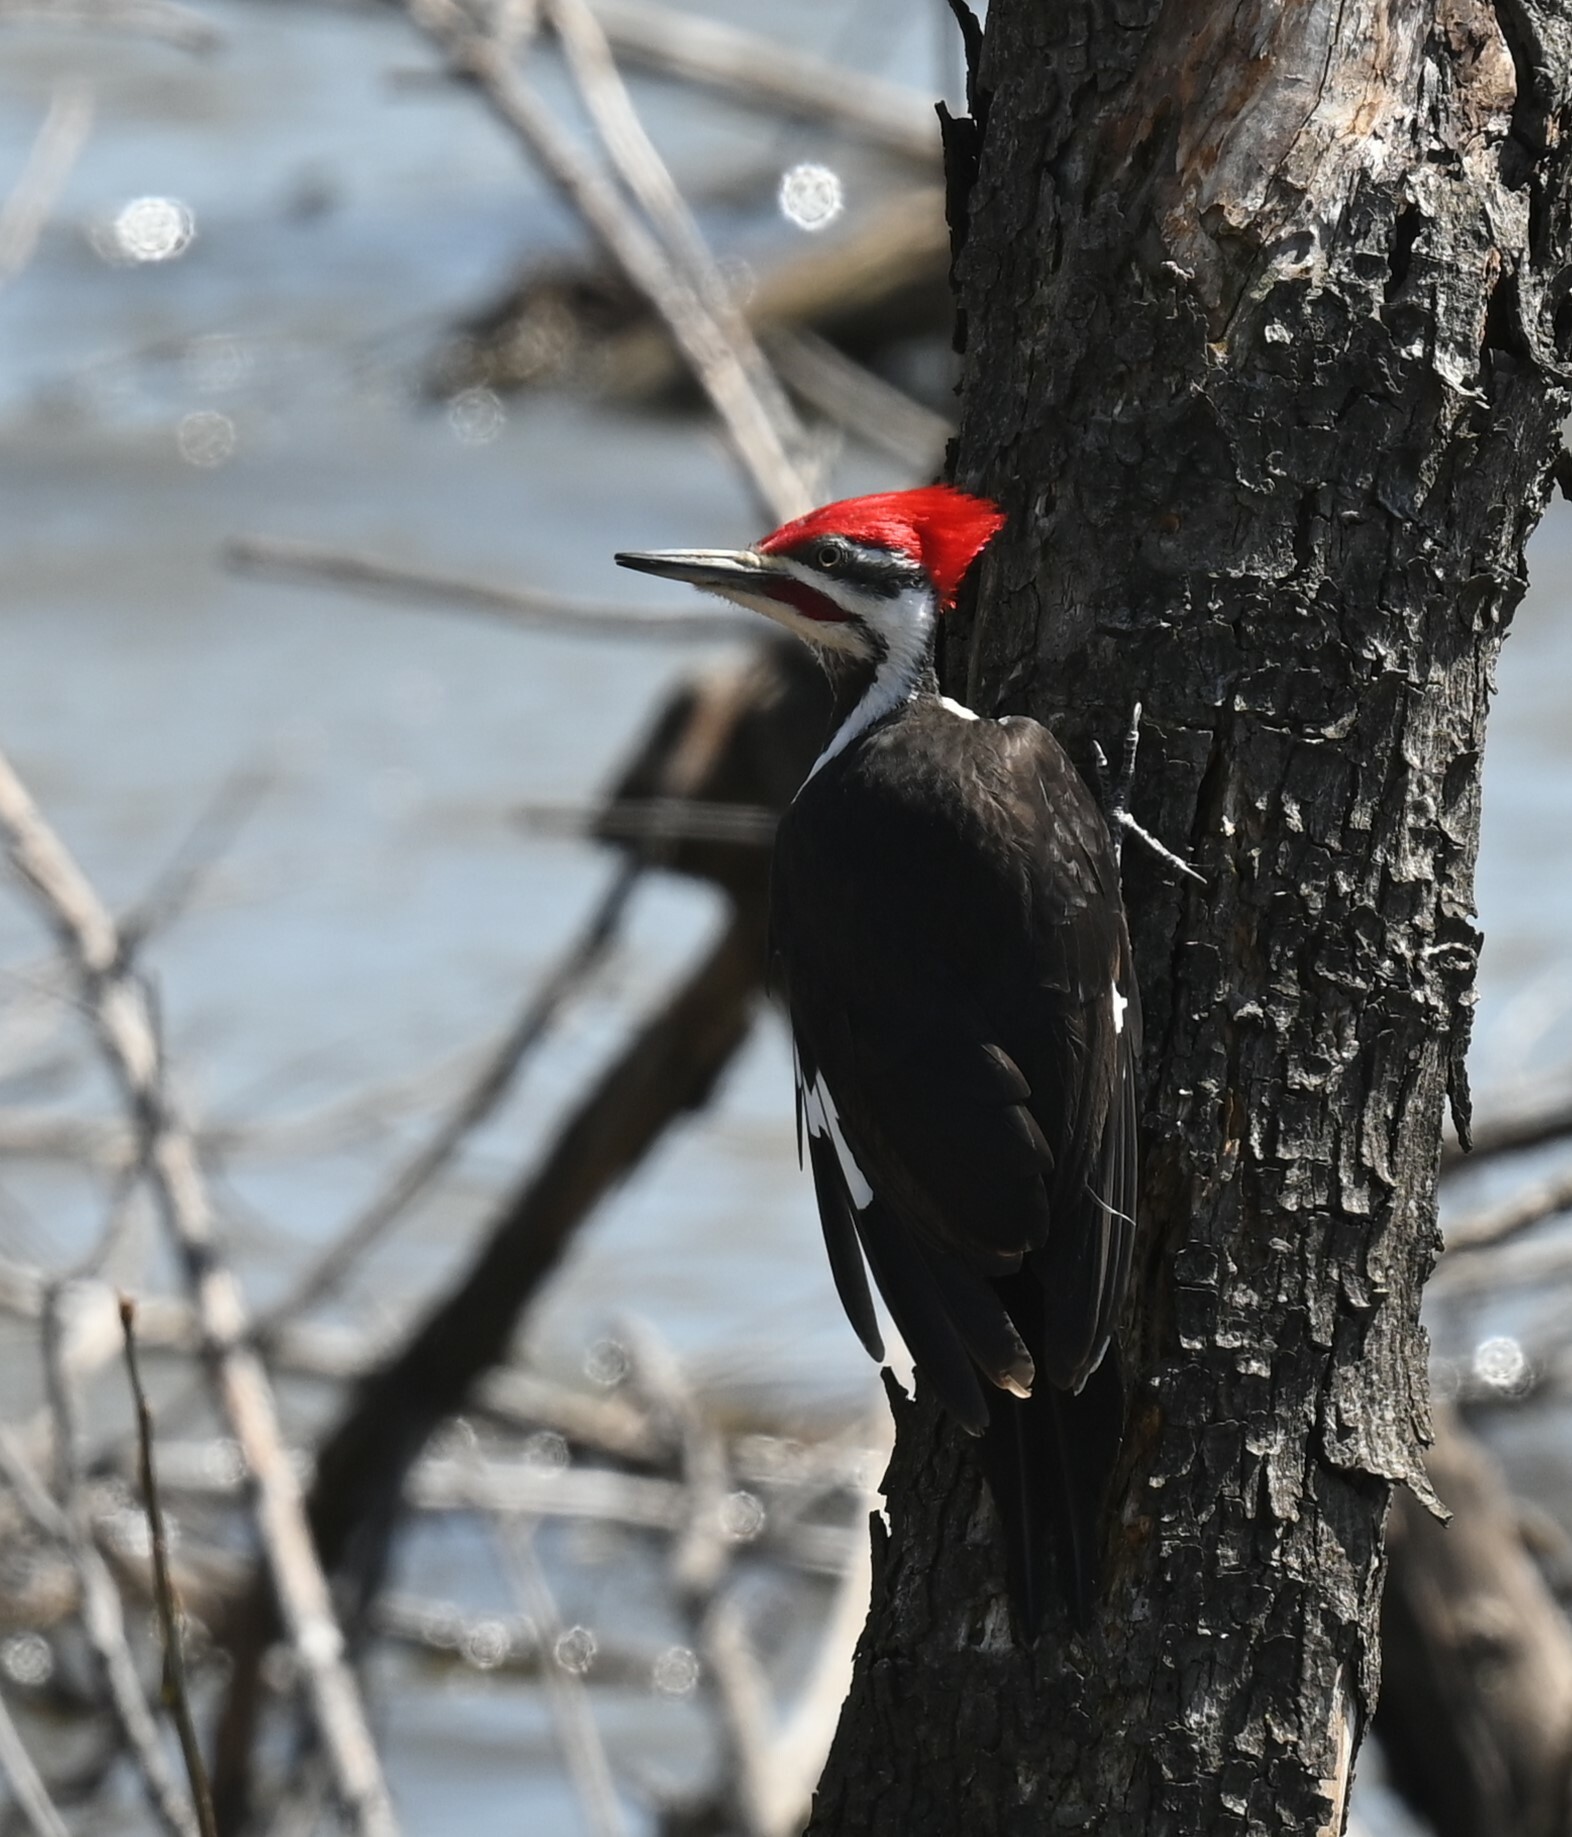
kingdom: Animalia
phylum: Chordata
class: Aves
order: Piciformes
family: Picidae
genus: Dryocopus
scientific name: Dryocopus pileatus
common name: Pileated woodpecker
